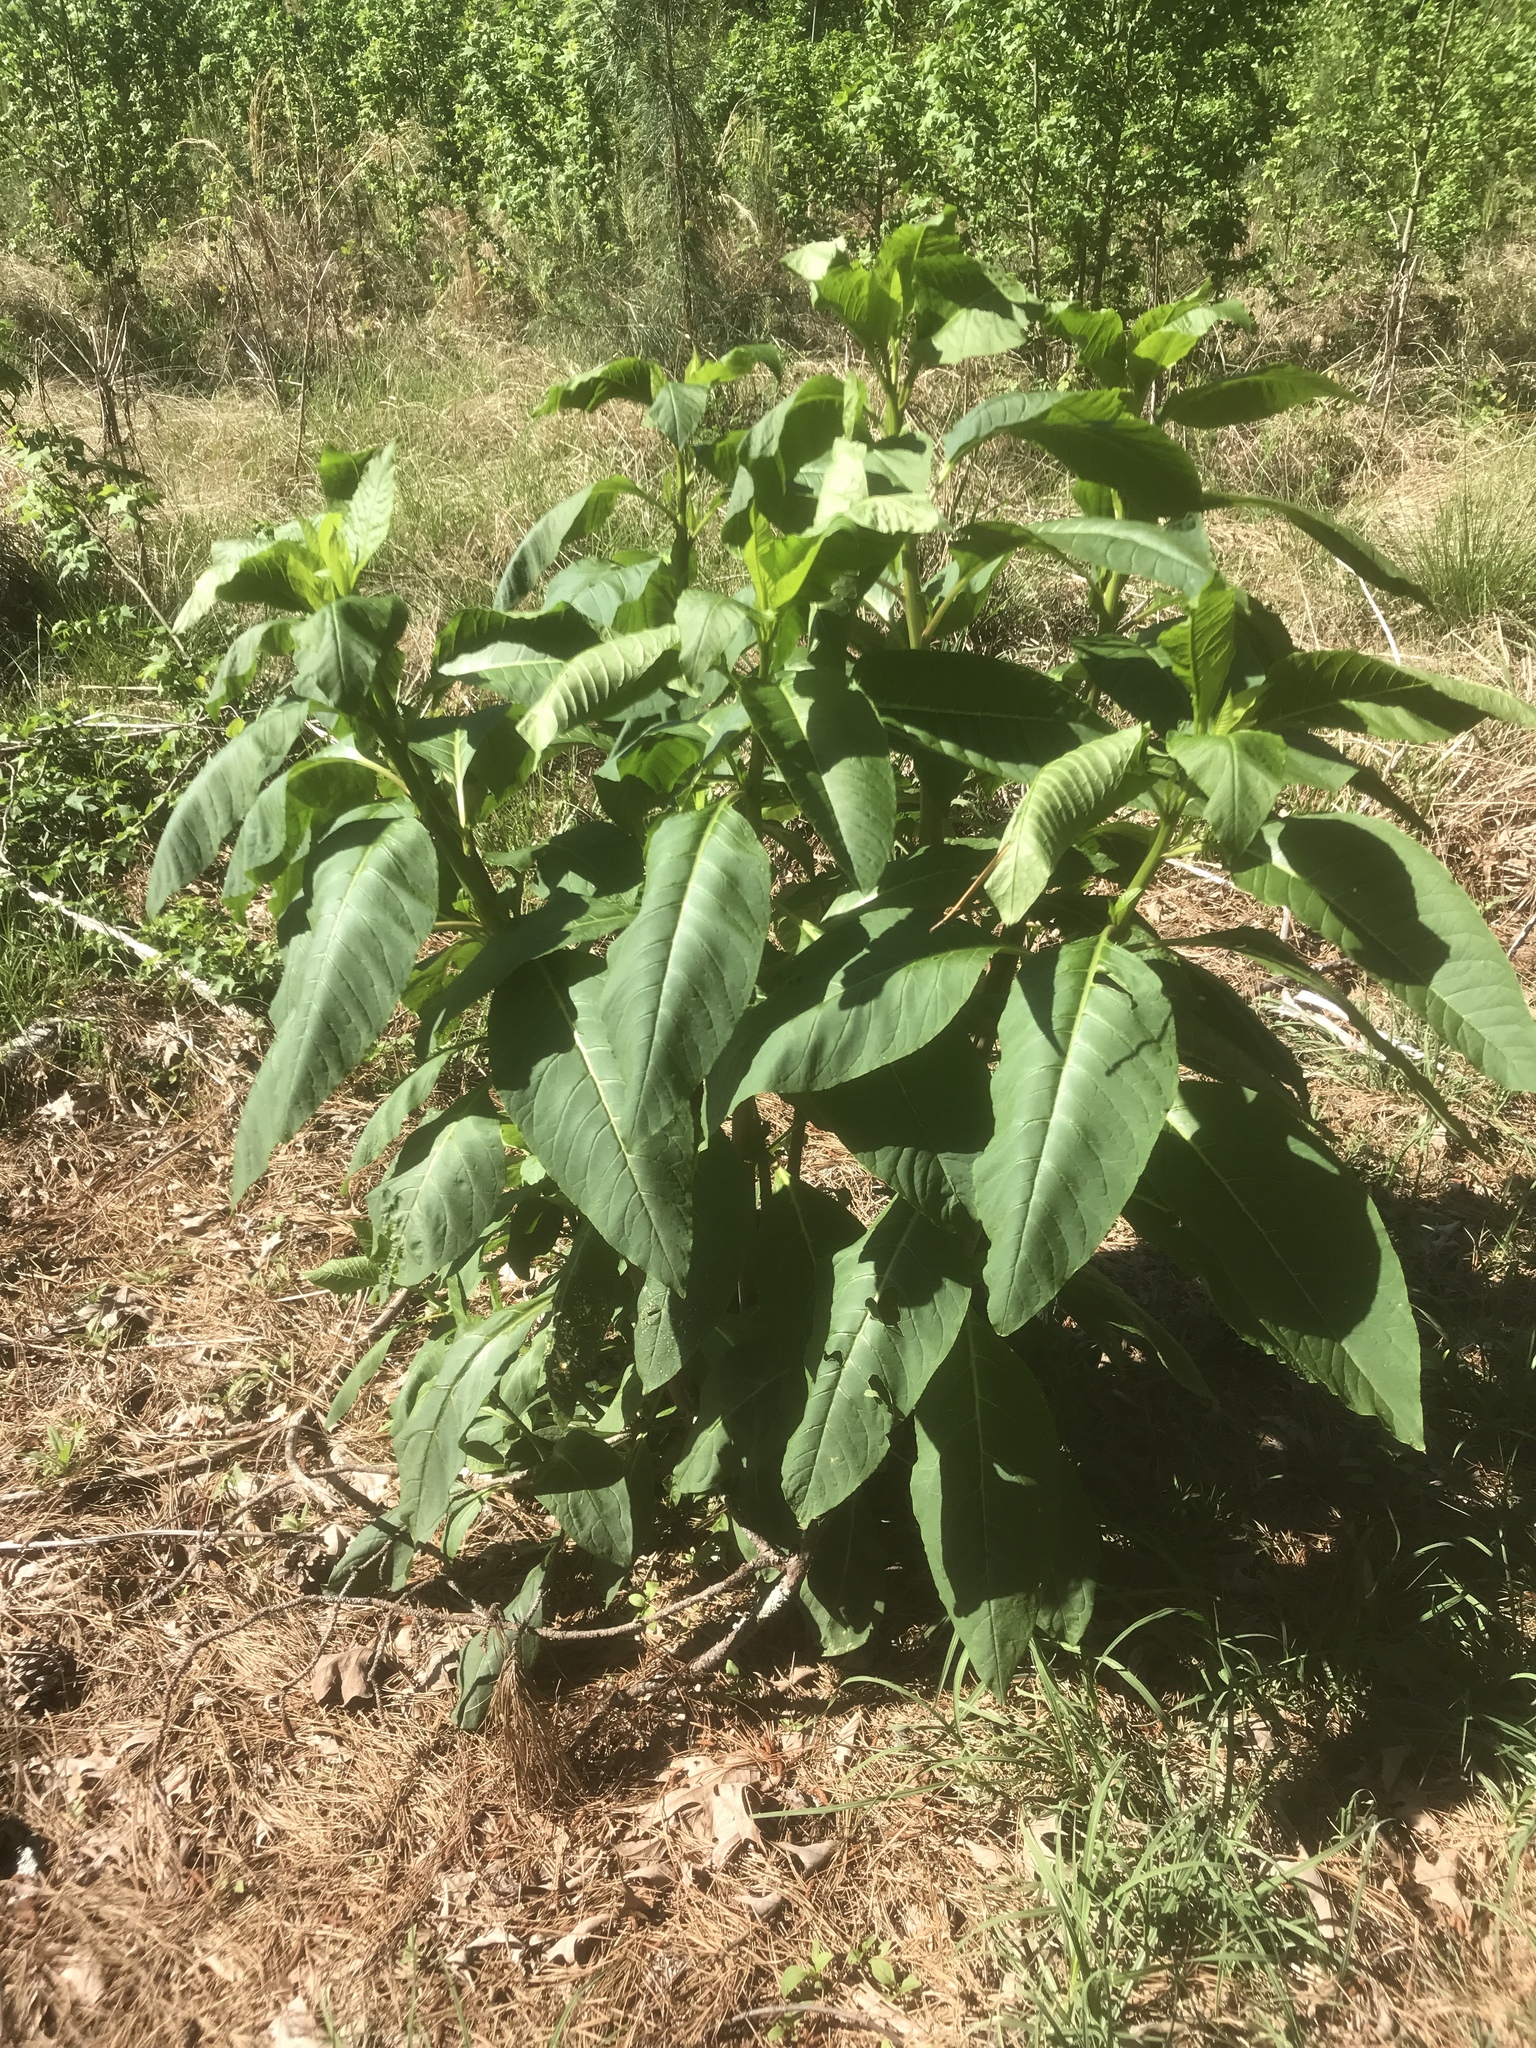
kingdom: Plantae
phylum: Tracheophyta
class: Magnoliopsida
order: Caryophyllales
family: Phytolaccaceae
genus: Phytolacca
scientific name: Phytolacca americana
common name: American pokeweed
